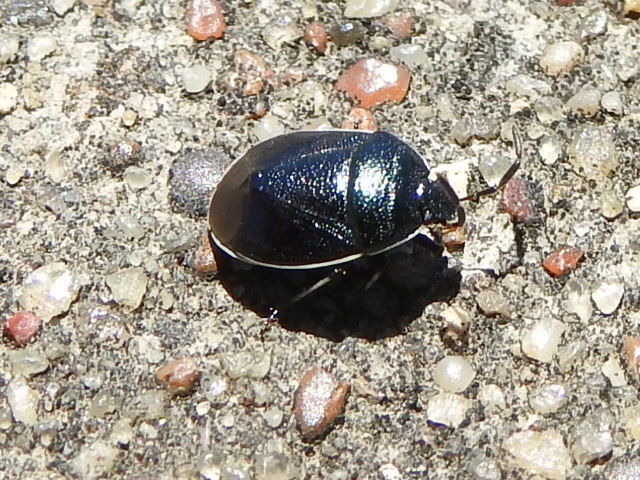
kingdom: Animalia
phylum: Arthropoda
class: Insecta
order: Hemiptera
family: Cydnidae
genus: Sehirus
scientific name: Sehirus cinctus
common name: White-margined burrower bug
